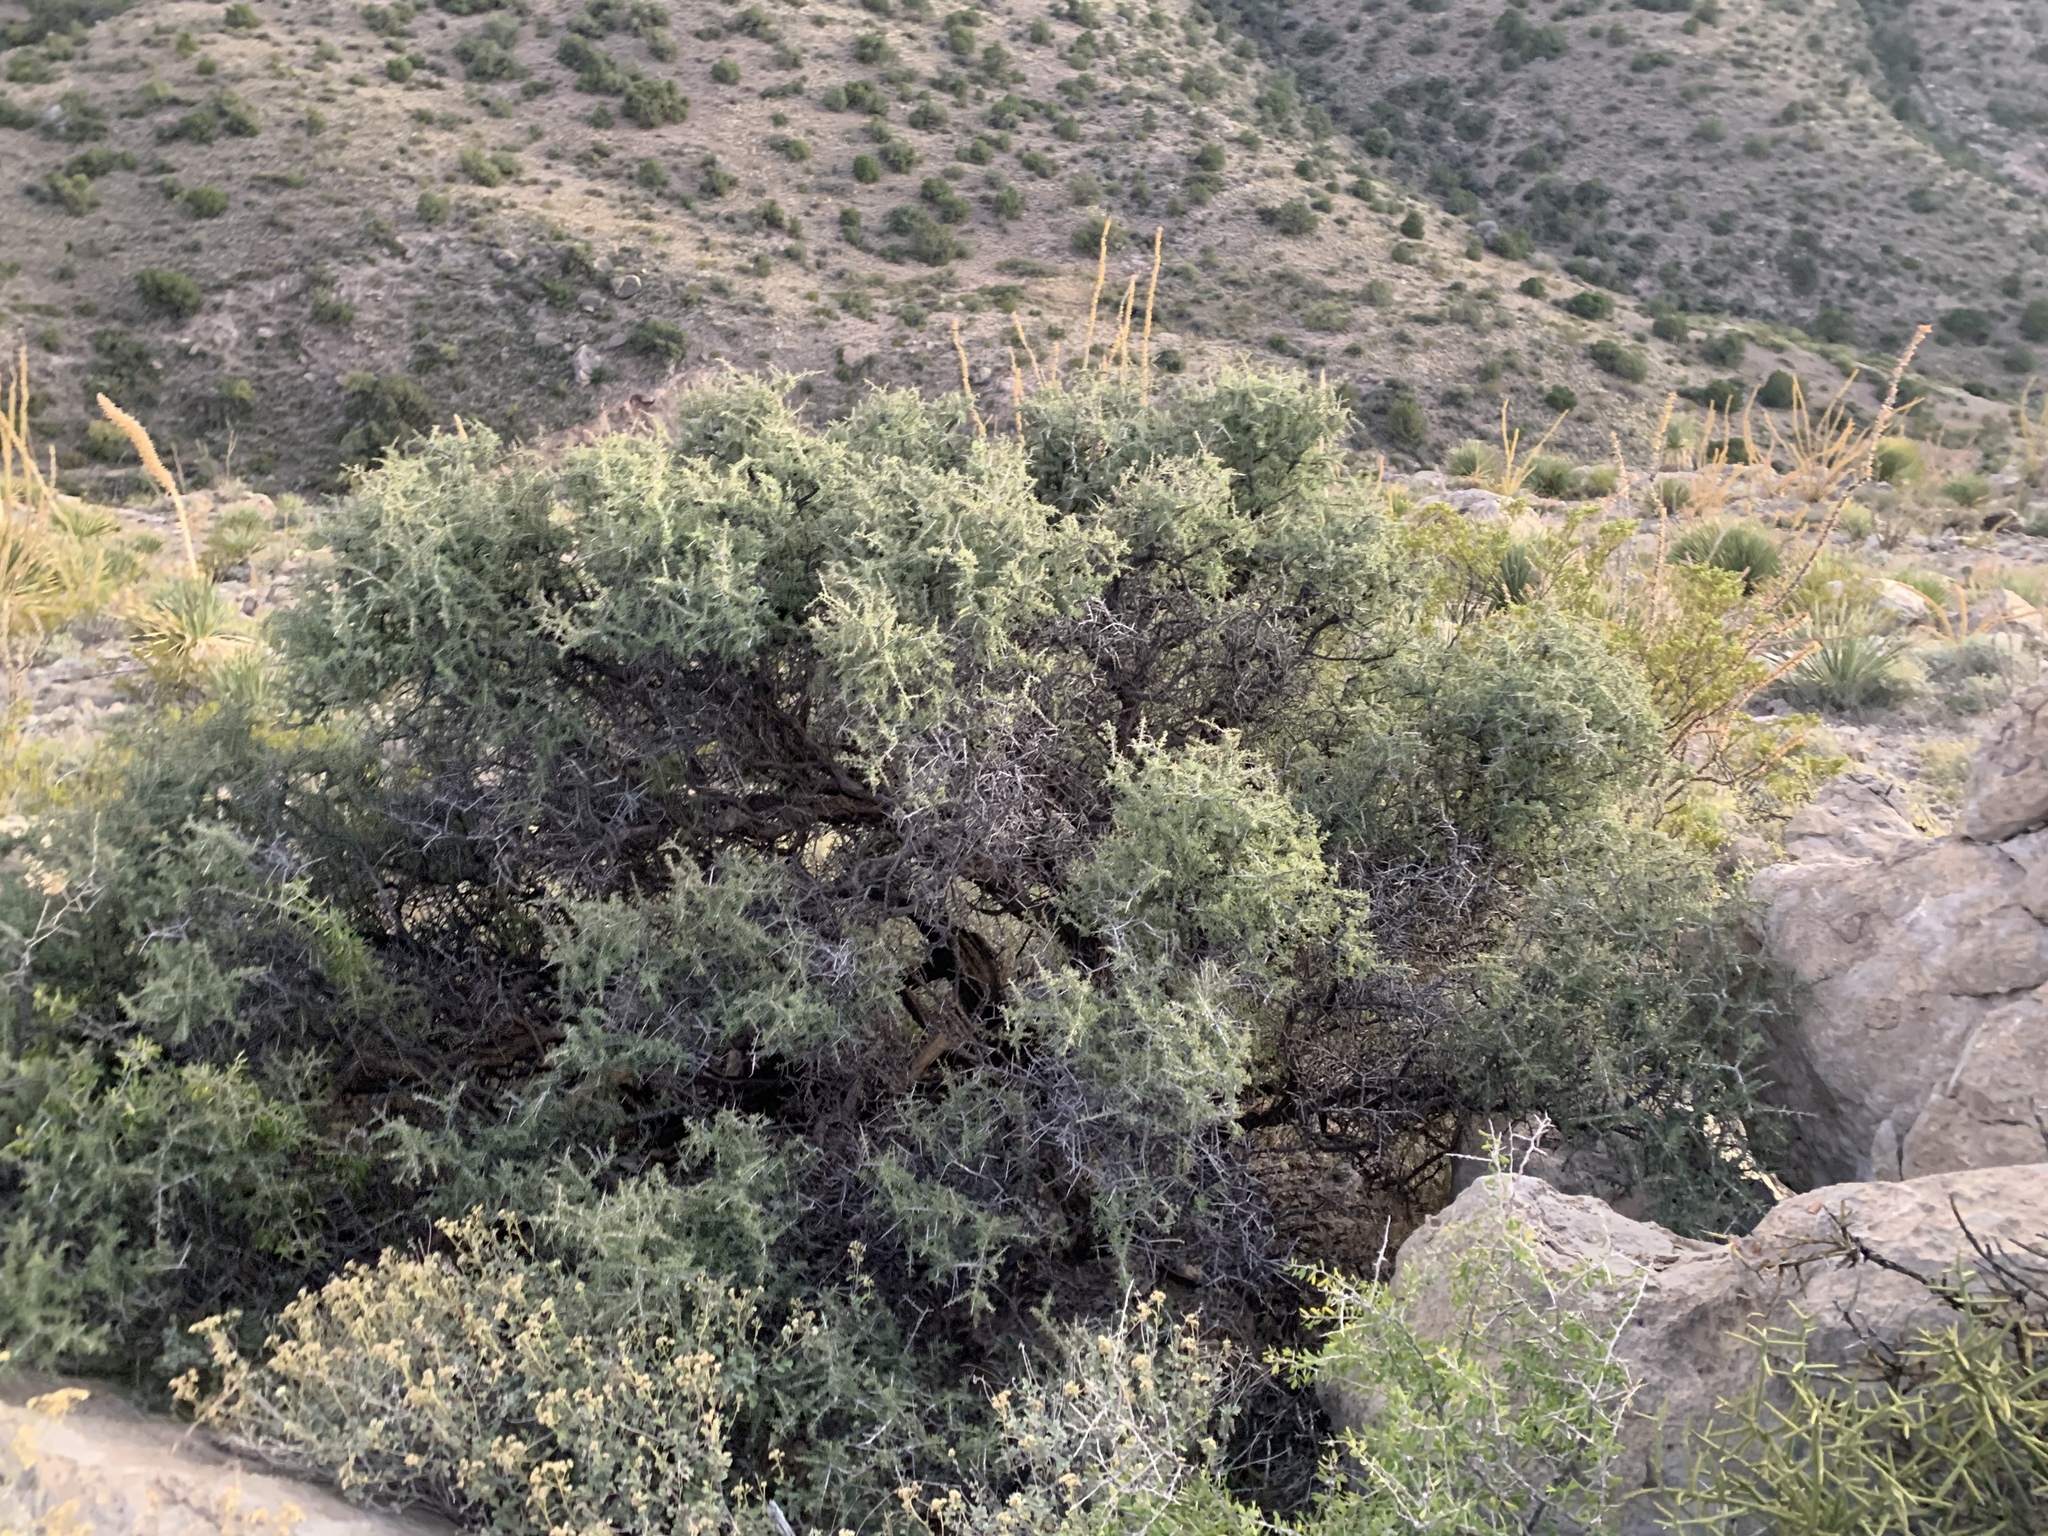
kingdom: Plantae
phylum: Tracheophyta
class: Magnoliopsida
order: Rosales
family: Rhamnaceae
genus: Condalia
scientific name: Condalia warnockii
